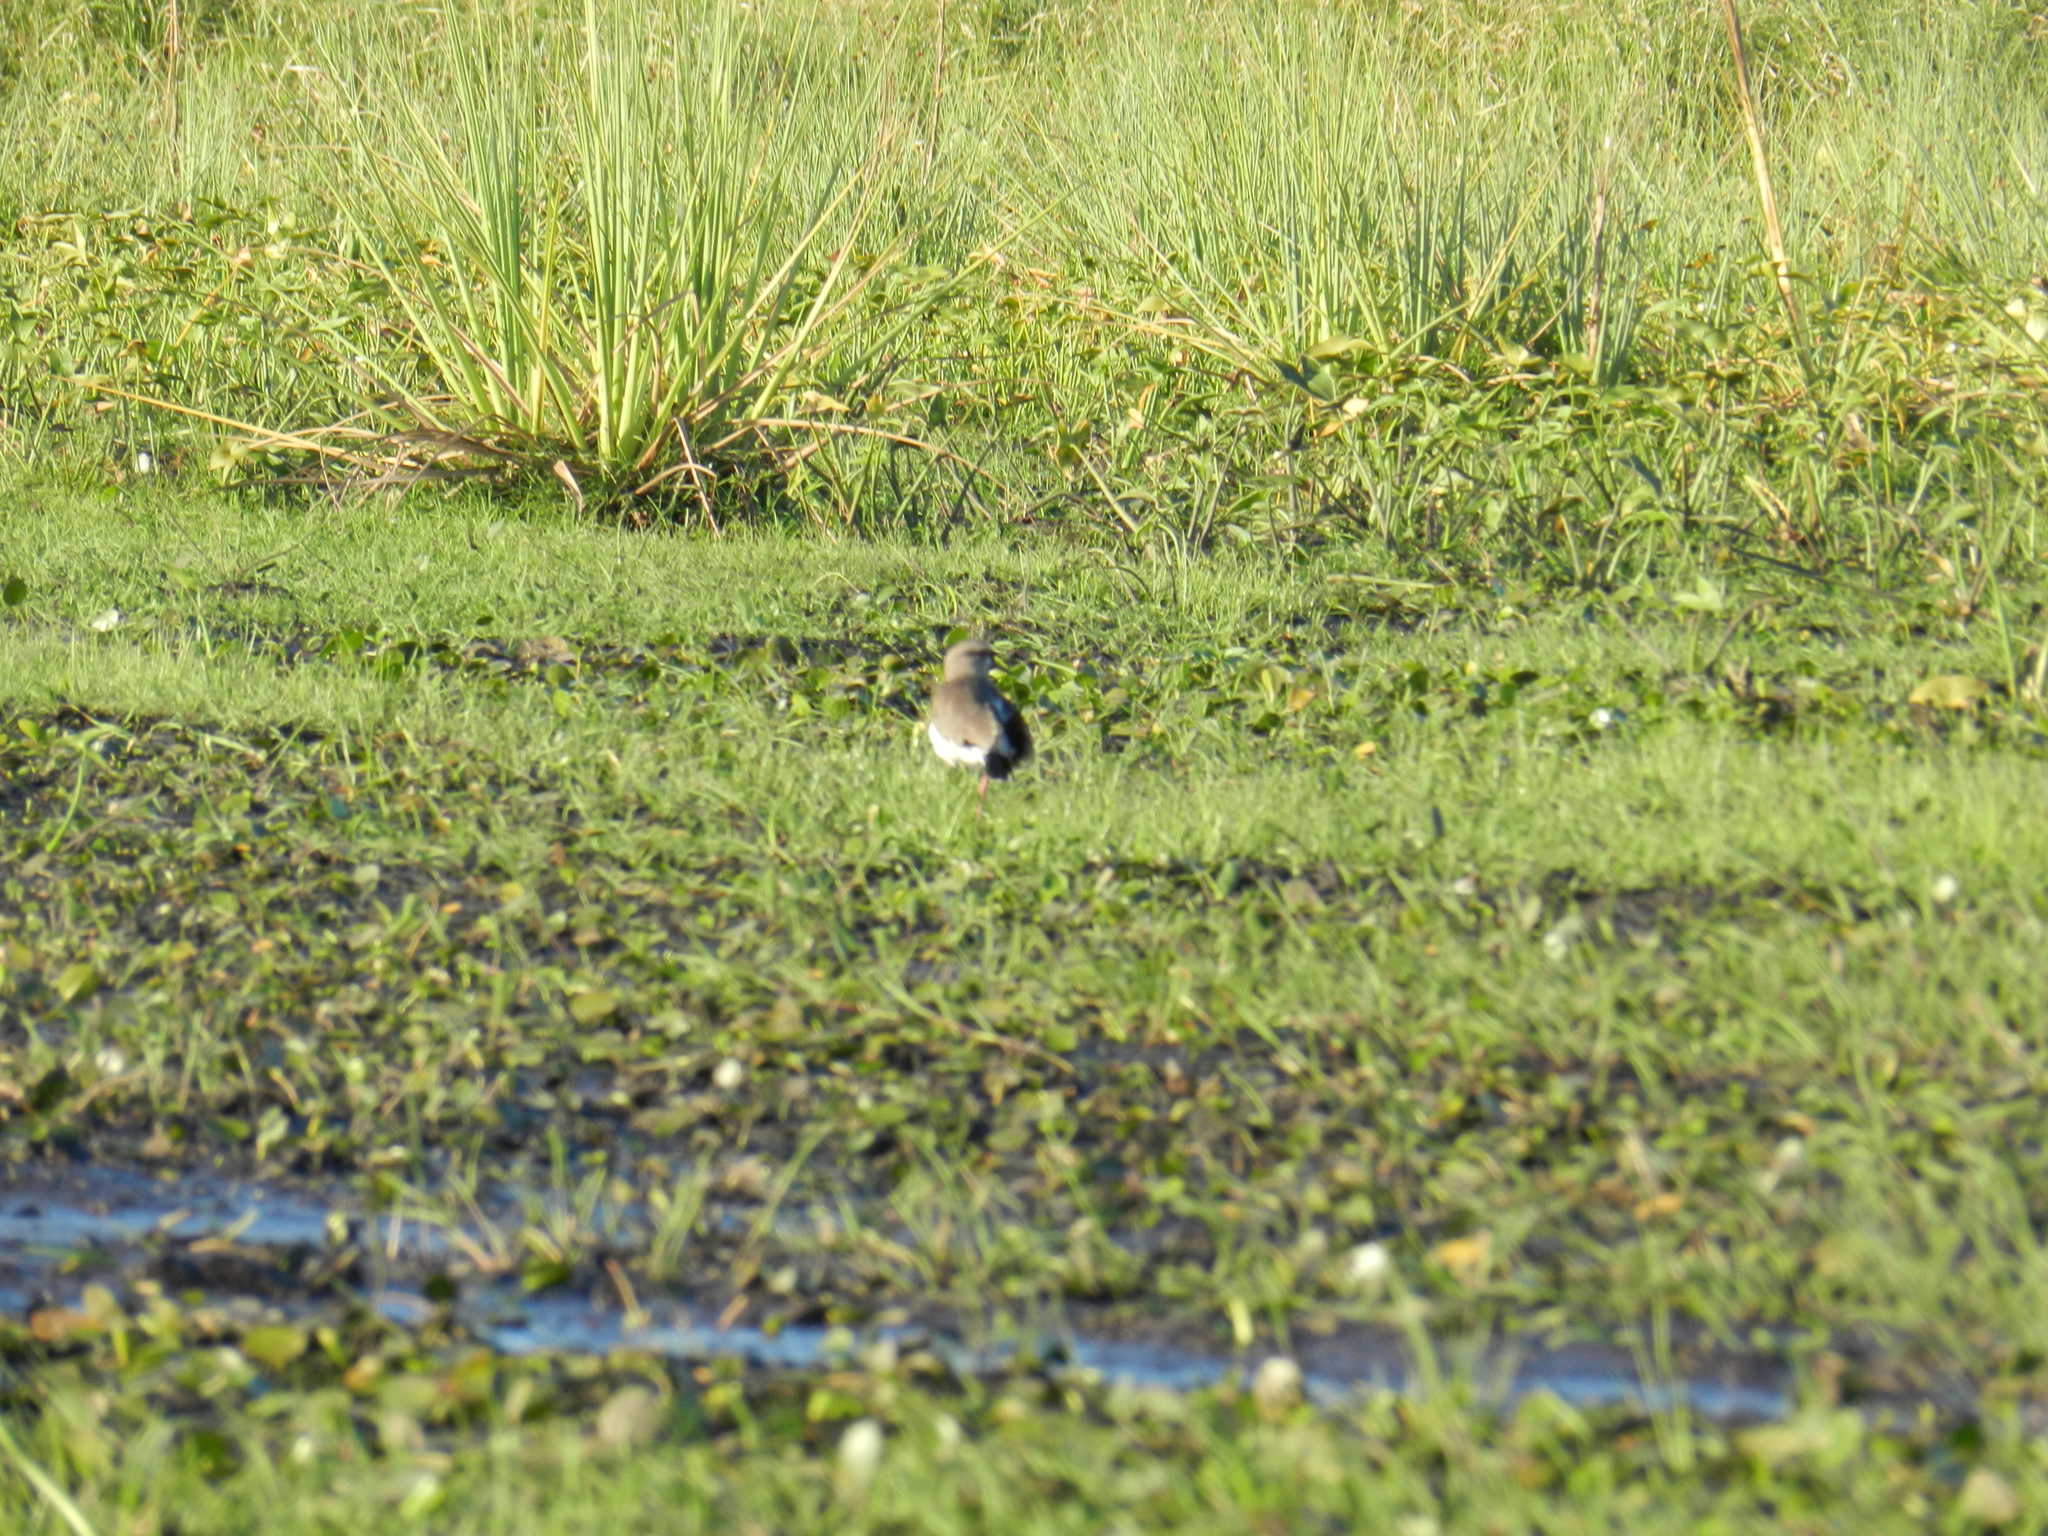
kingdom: Animalia
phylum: Chordata
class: Aves
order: Charadriiformes
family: Charadriidae
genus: Vanellus
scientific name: Vanellus chilensis
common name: Southern lapwing
